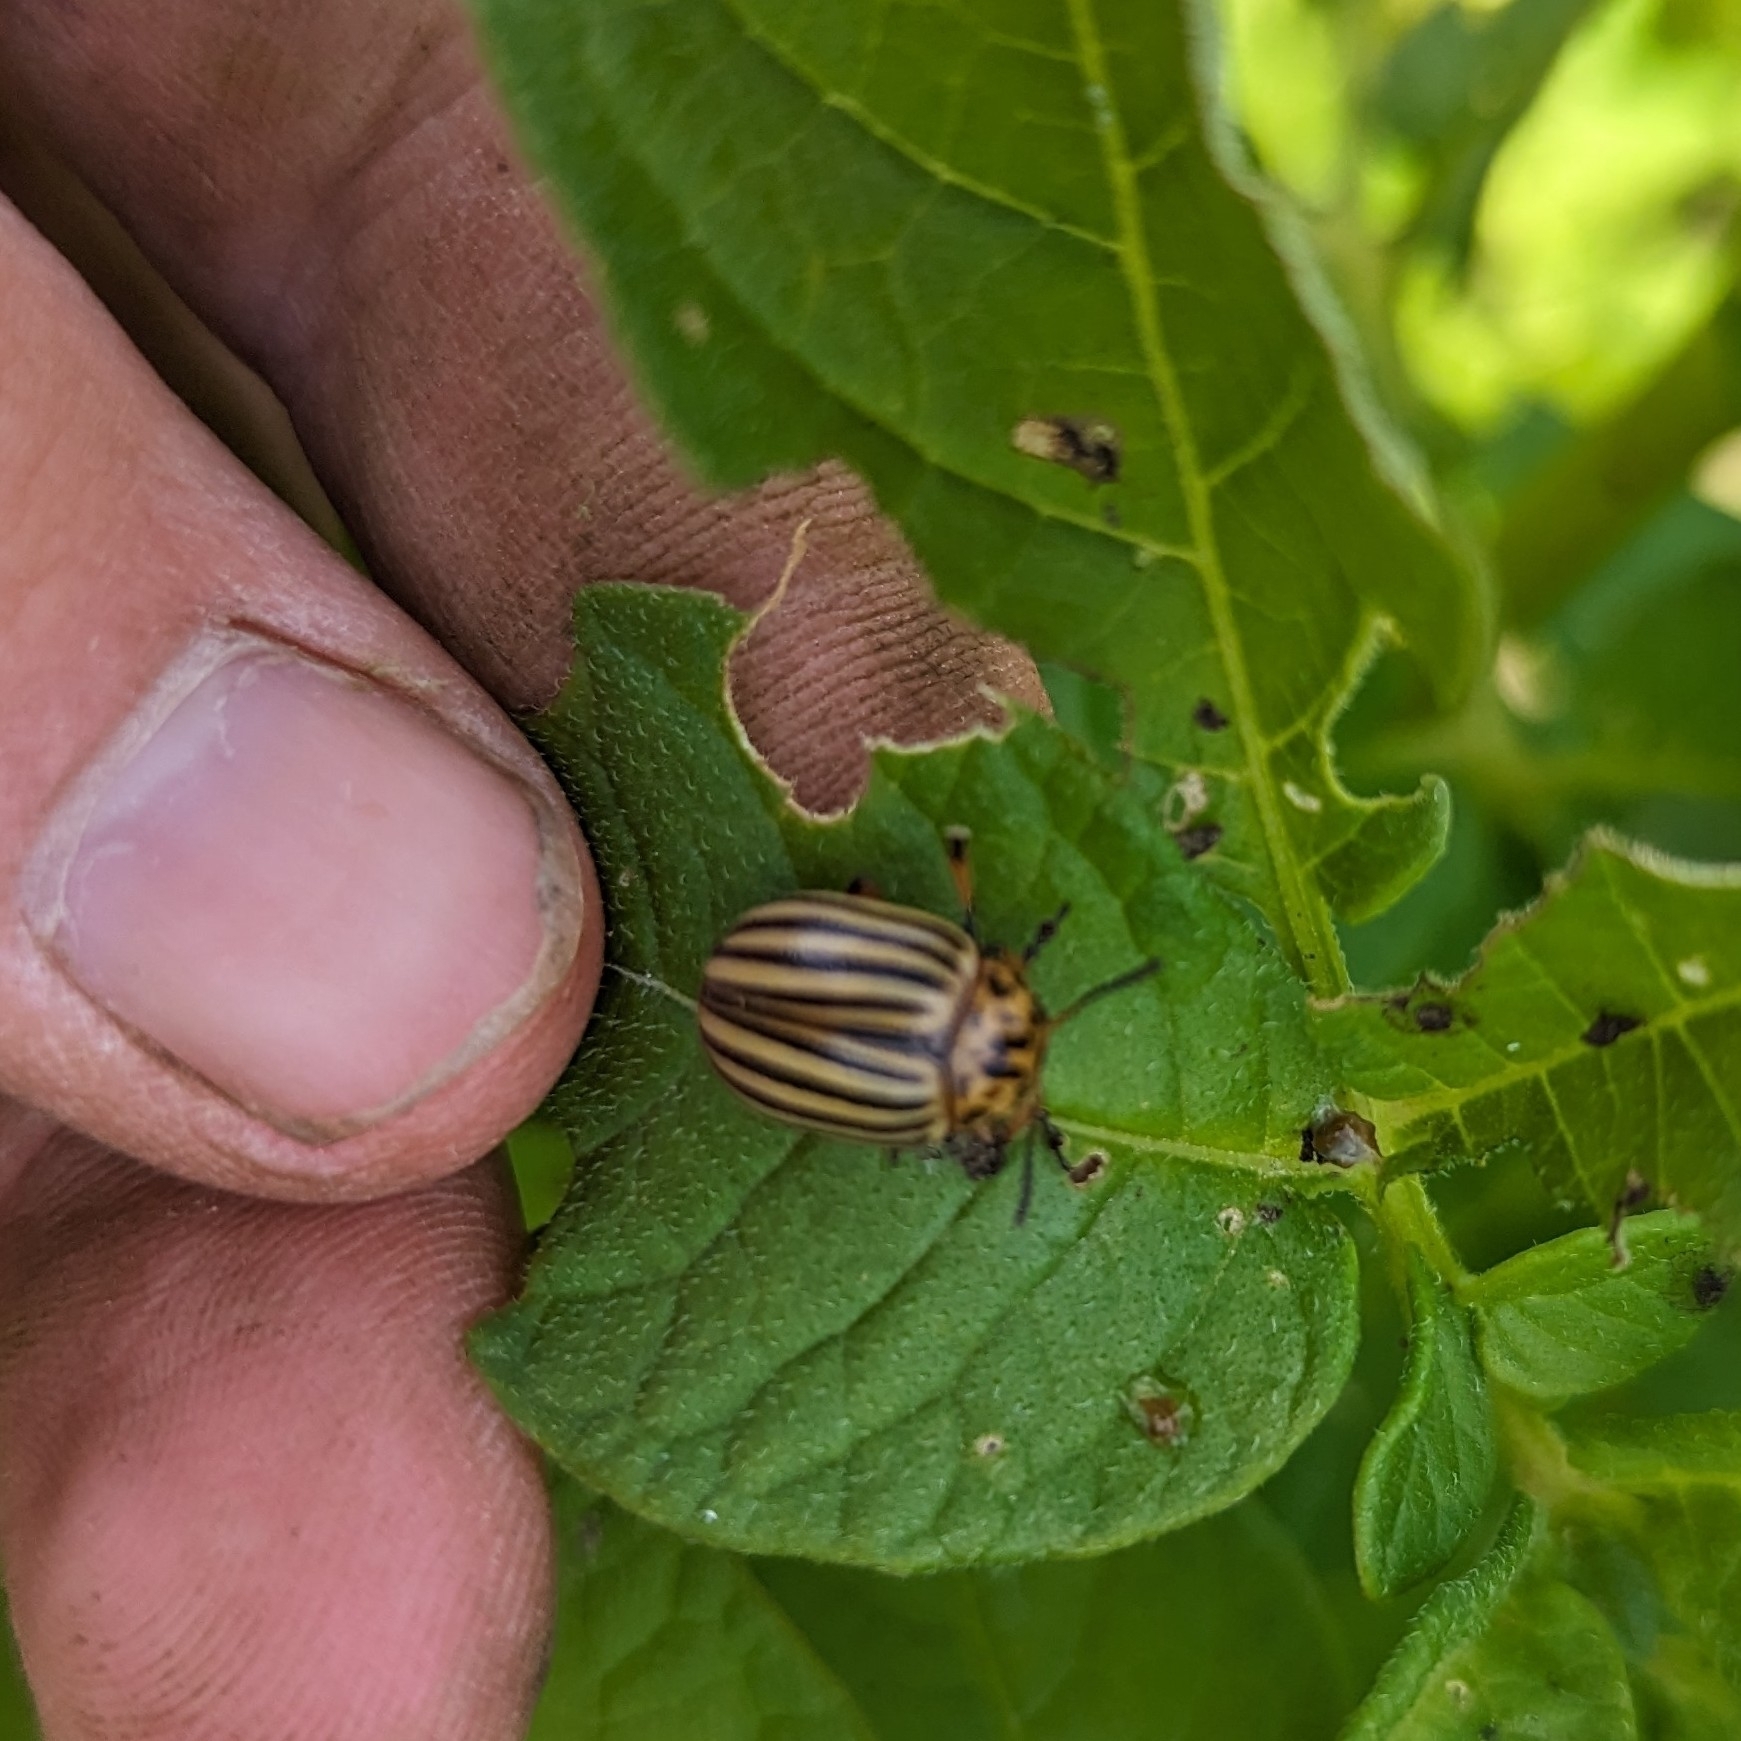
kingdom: Animalia
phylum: Arthropoda
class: Insecta
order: Coleoptera
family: Chrysomelidae
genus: Leptinotarsa
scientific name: Leptinotarsa decemlineata
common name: Colorado potato beetle
